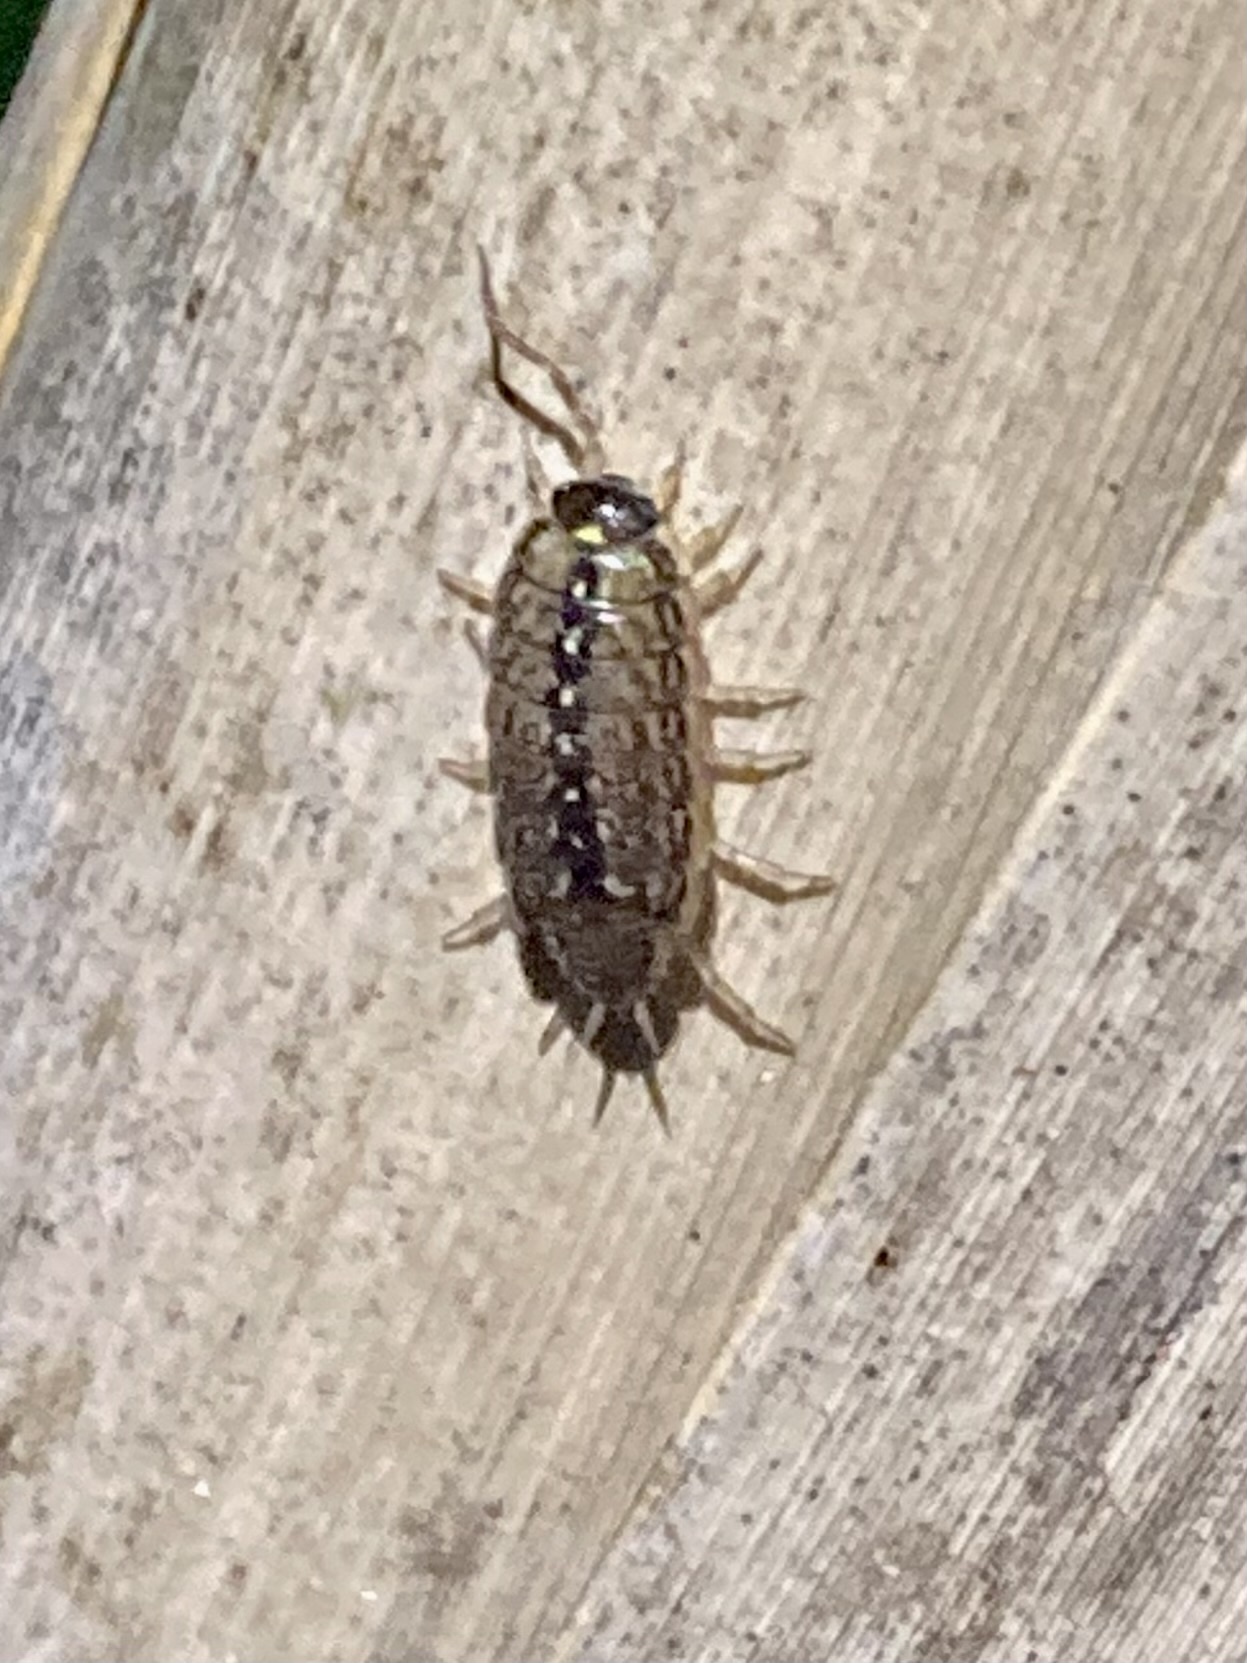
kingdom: Animalia
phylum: Arthropoda
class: Malacostraca
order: Isopoda
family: Philosciidae
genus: Philoscia
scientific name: Philoscia muscorum
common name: Common striped woodlouse
